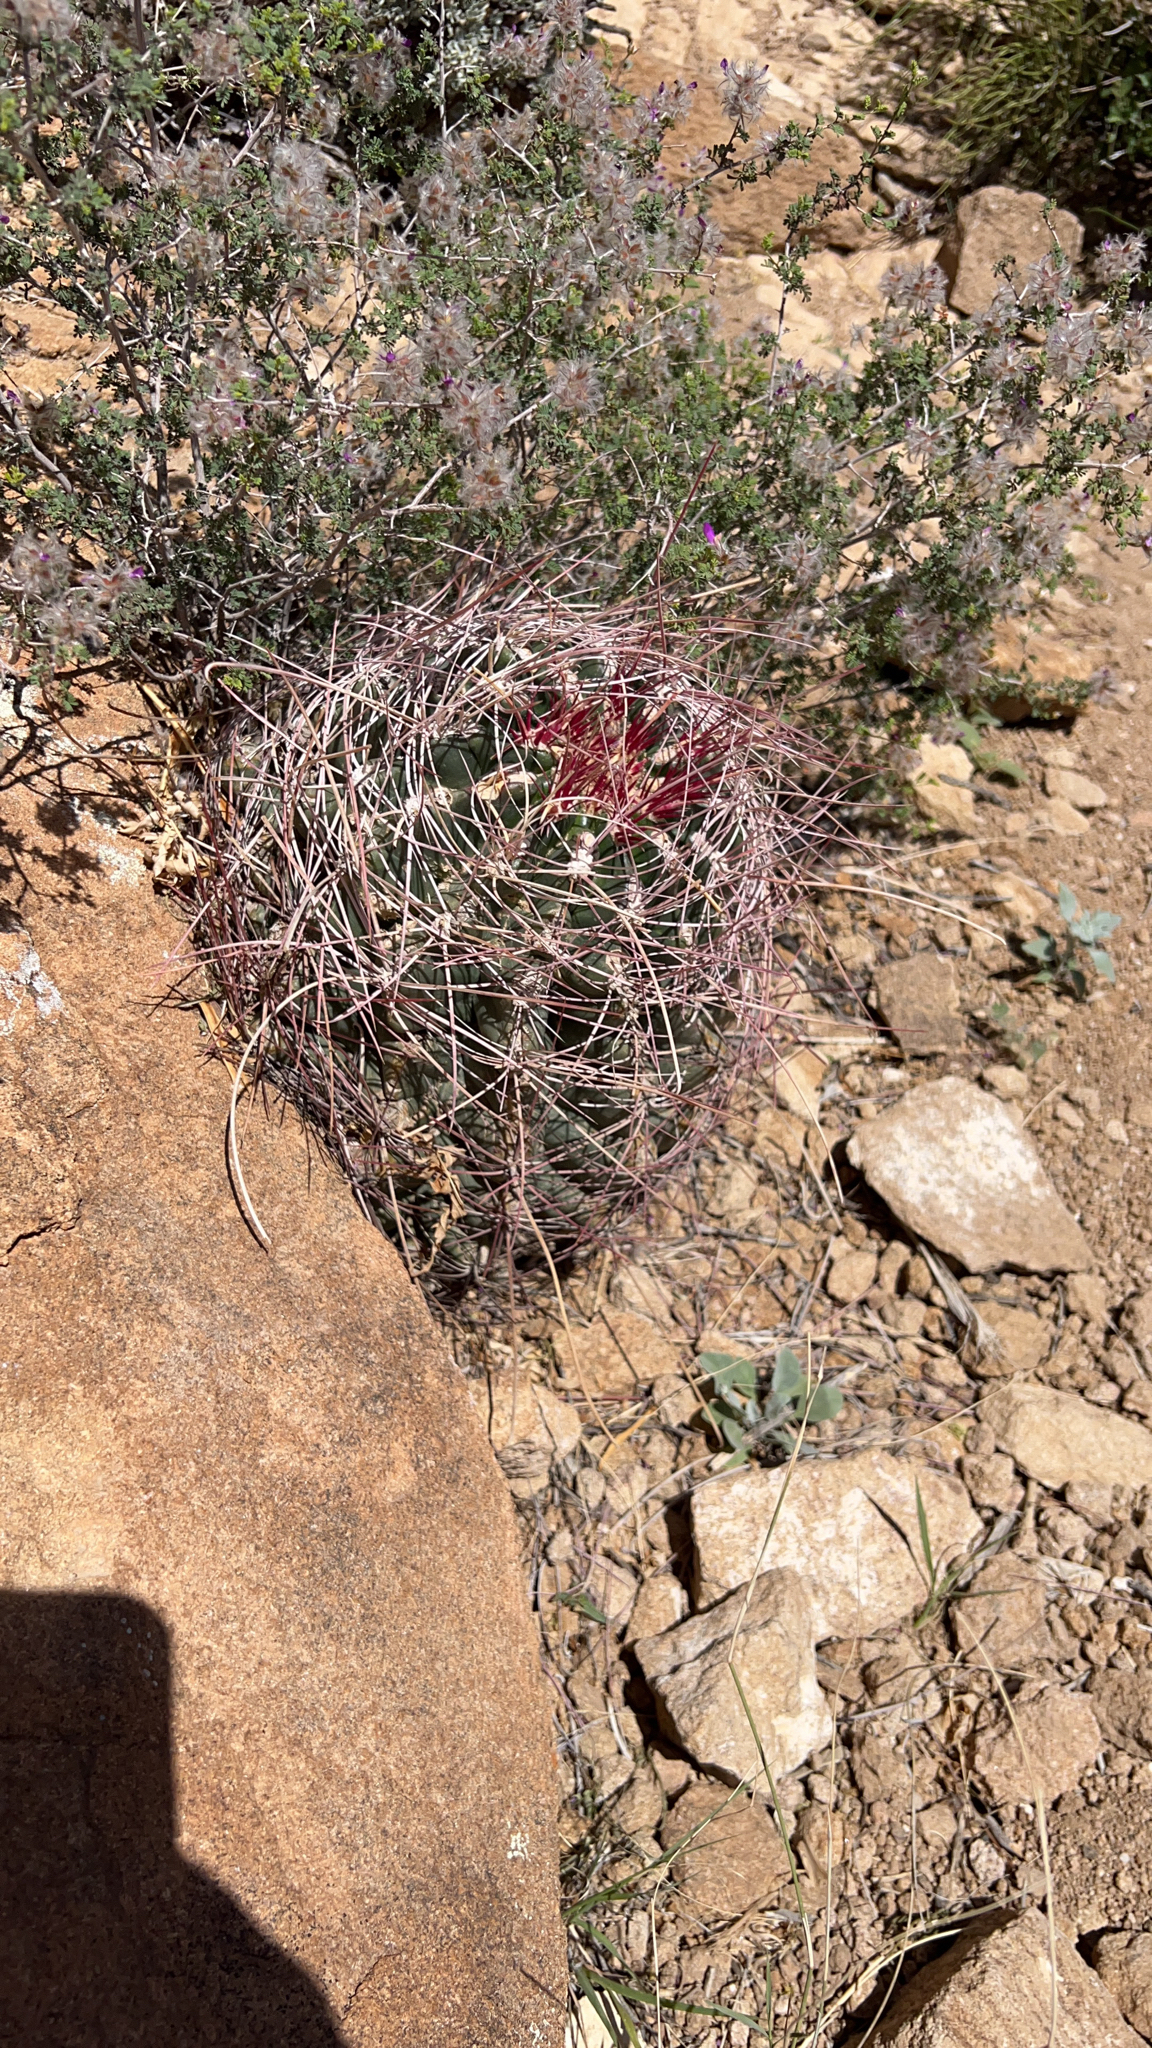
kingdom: Plantae
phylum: Tracheophyta
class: Magnoliopsida
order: Caryophyllales
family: Cactaceae
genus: Bisnaga
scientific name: Bisnaga hamatacantha
